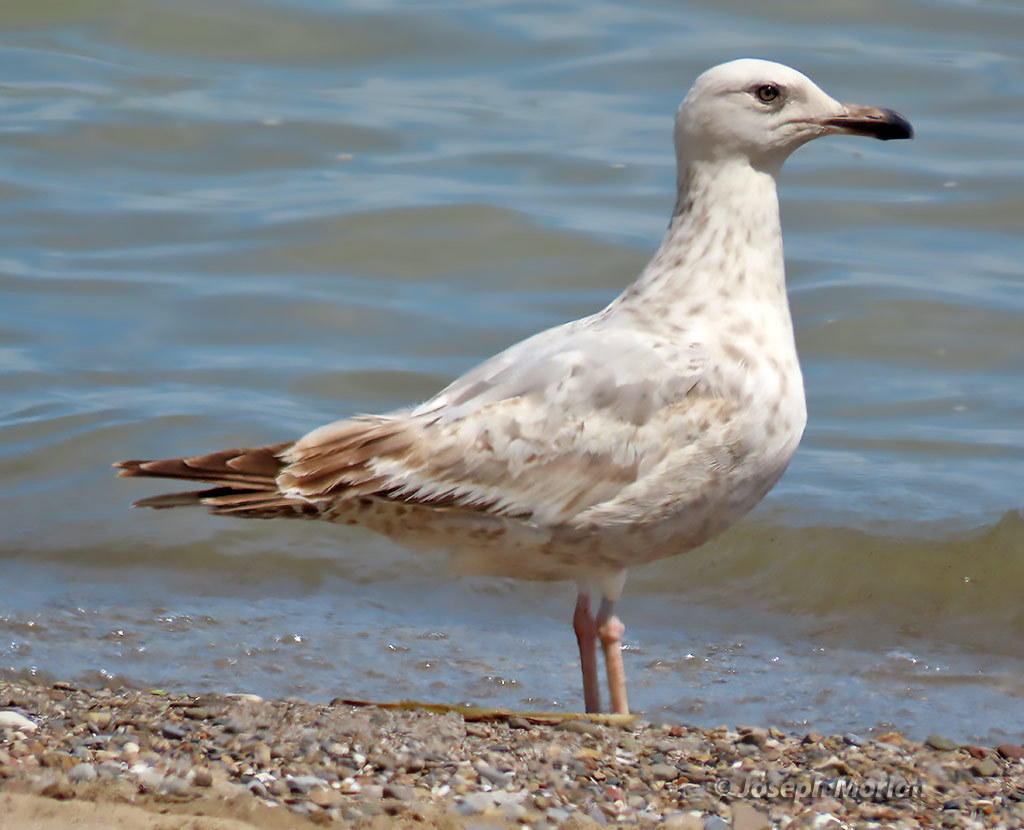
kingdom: Animalia
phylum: Chordata
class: Aves
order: Charadriiformes
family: Laridae
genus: Larus
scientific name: Larus argentatus
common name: Herring gull
